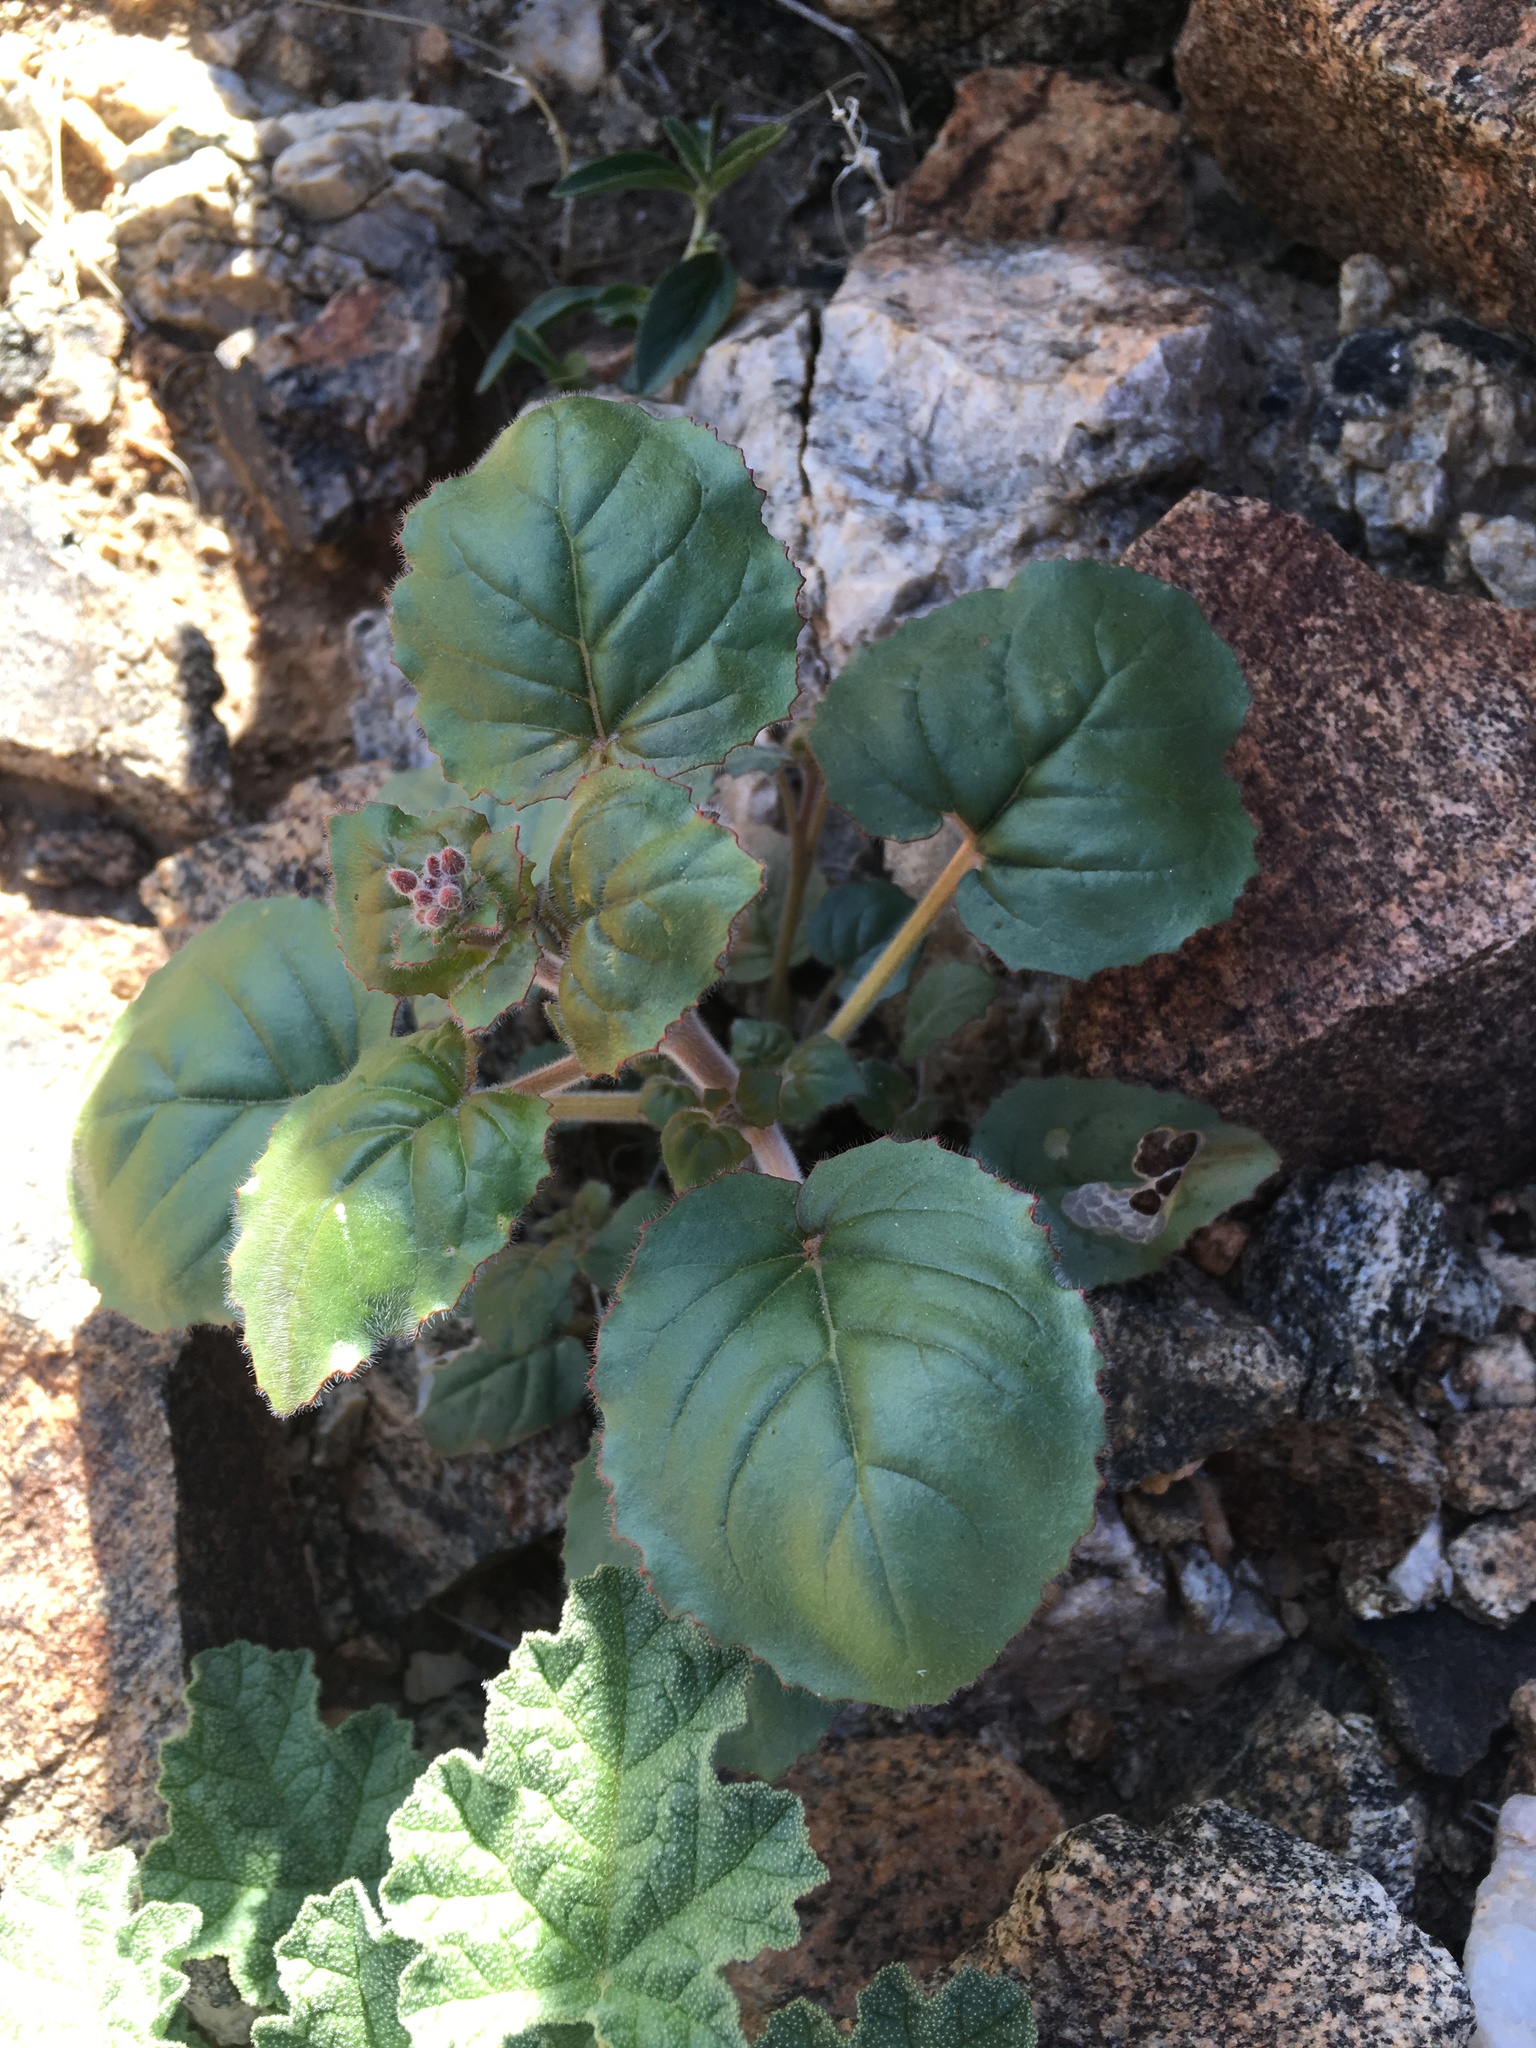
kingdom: Plantae
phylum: Tracheophyta
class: Magnoliopsida
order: Myrtales
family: Onagraceae
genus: Chylismia
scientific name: Chylismia cardiophylla
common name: Heartleaf suncup
